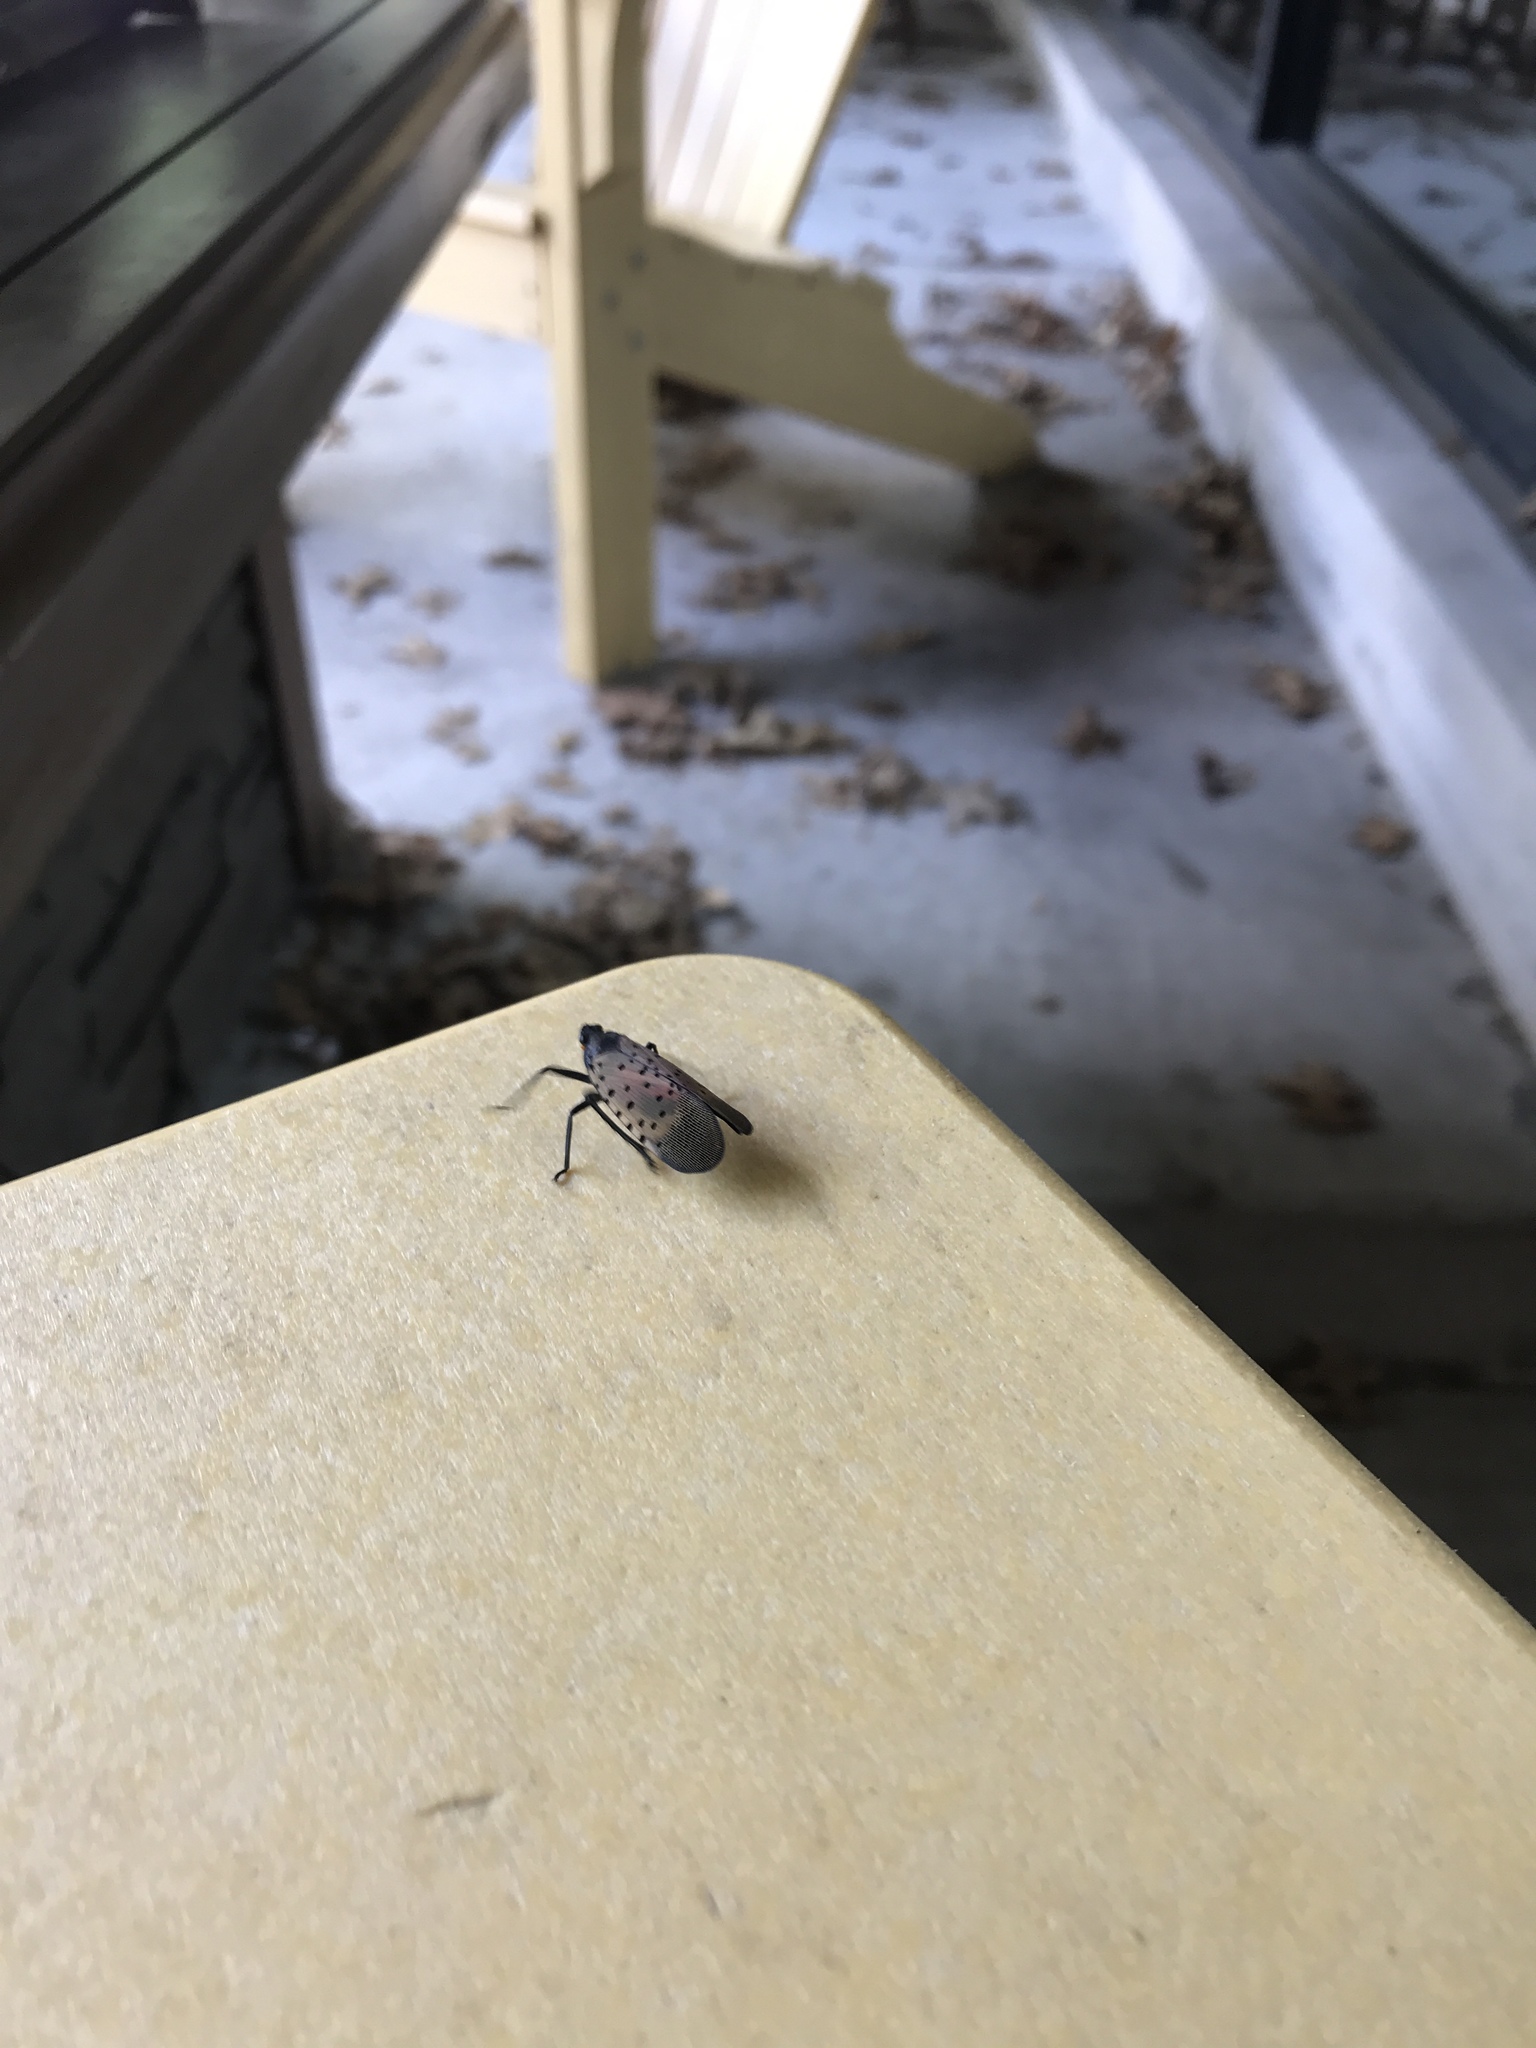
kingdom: Animalia
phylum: Arthropoda
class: Insecta
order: Hemiptera
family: Fulgoridae
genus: Lycorma
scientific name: Lycorma delicatula
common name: Spotted lanternfly
